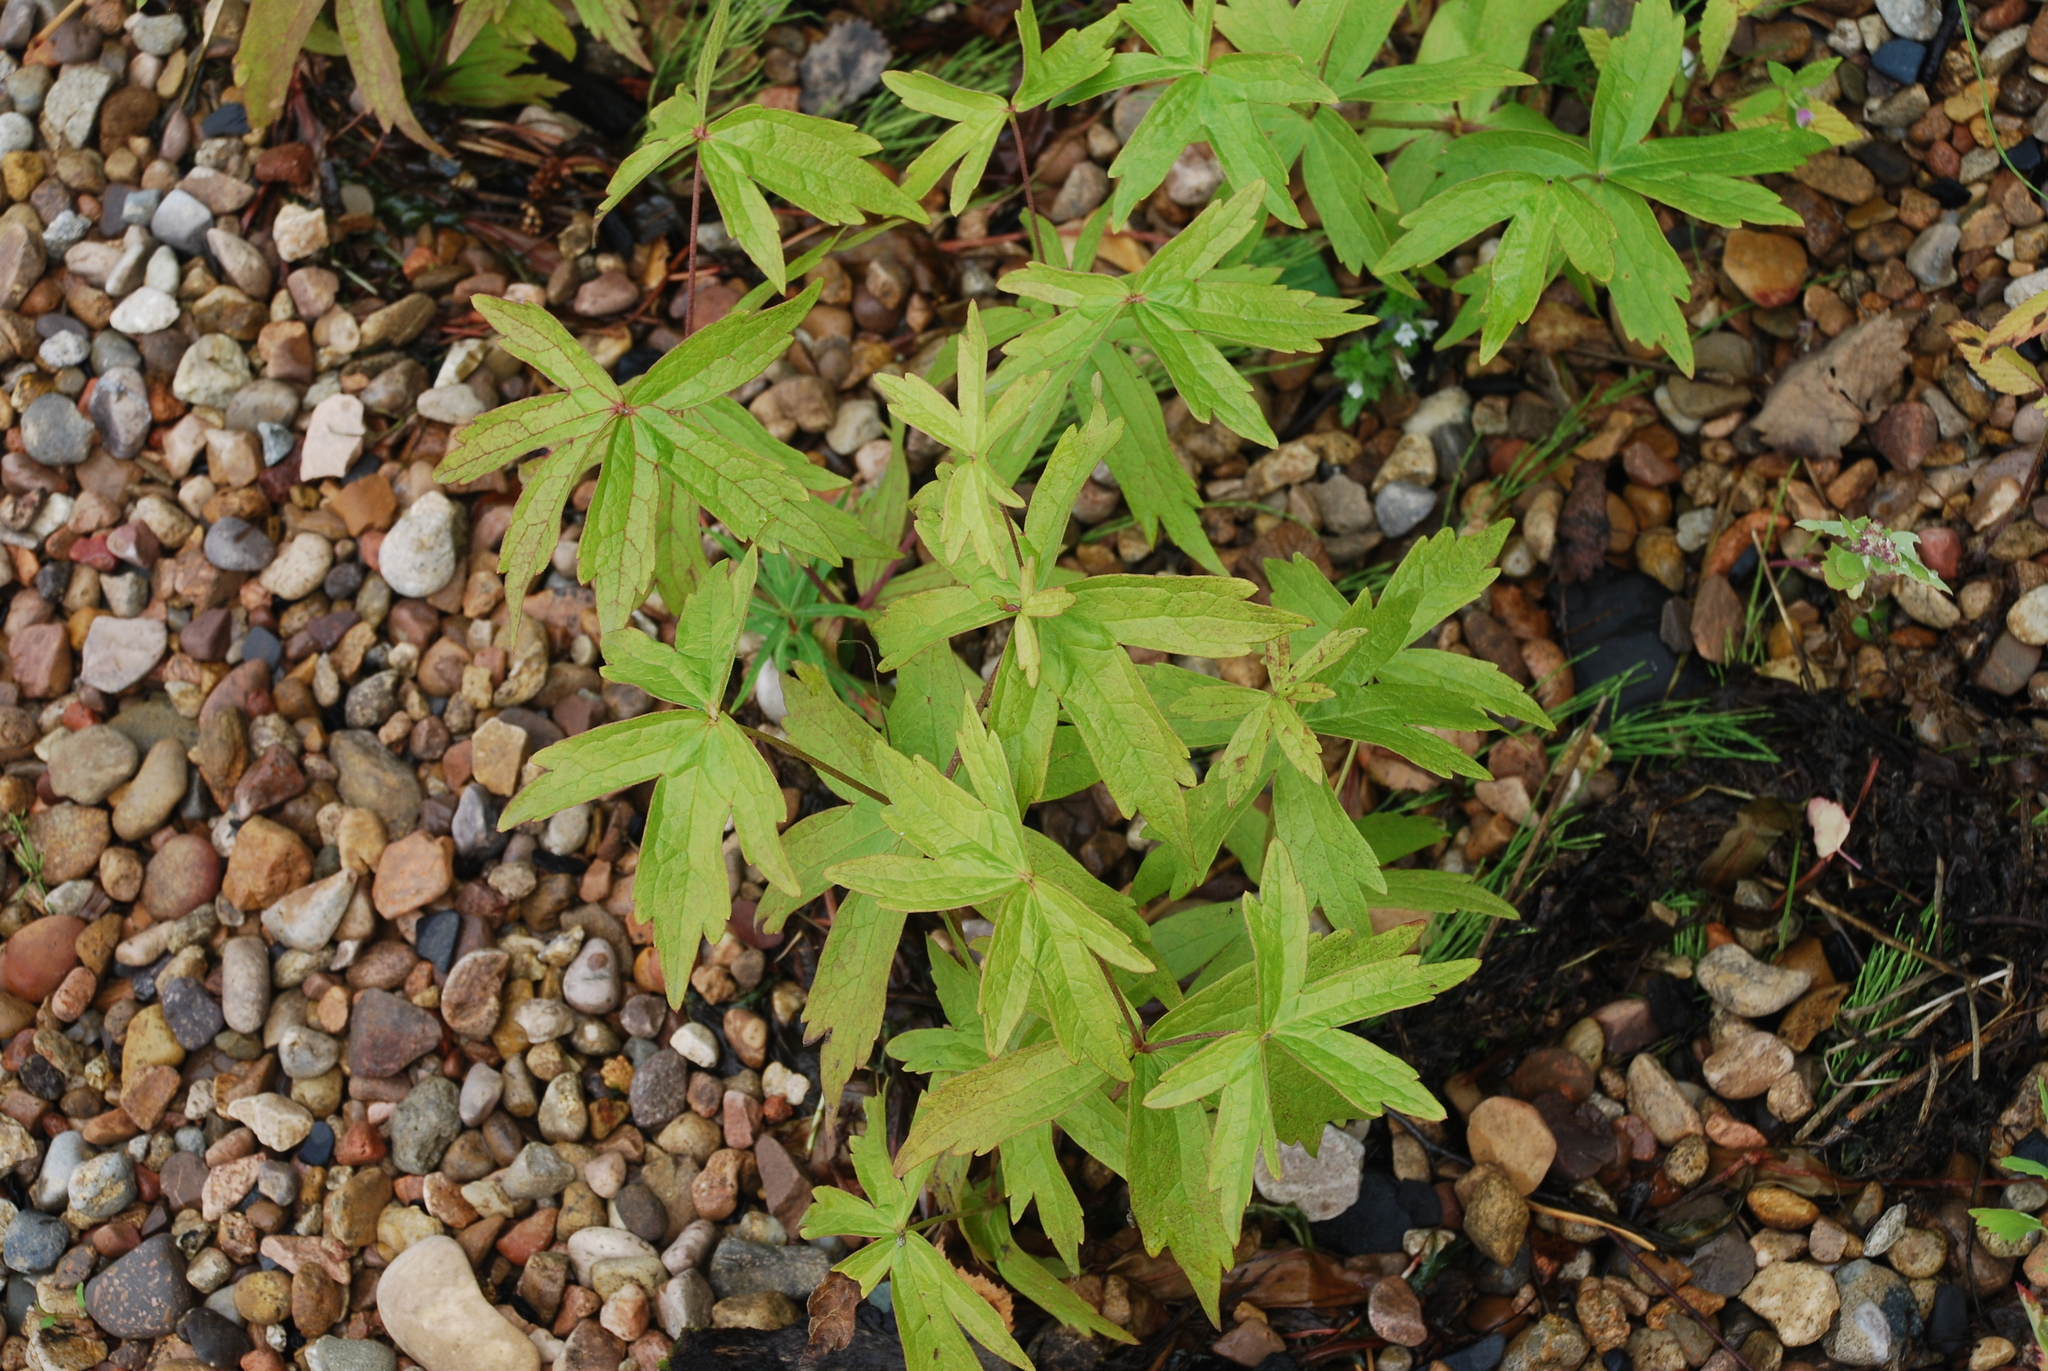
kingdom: Plantae
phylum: Tracheophyta
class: Magnoliopsida
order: Ranunculales
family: Ranunculaceae
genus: Anemonastrum
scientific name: Anemonastrum dichotomum
